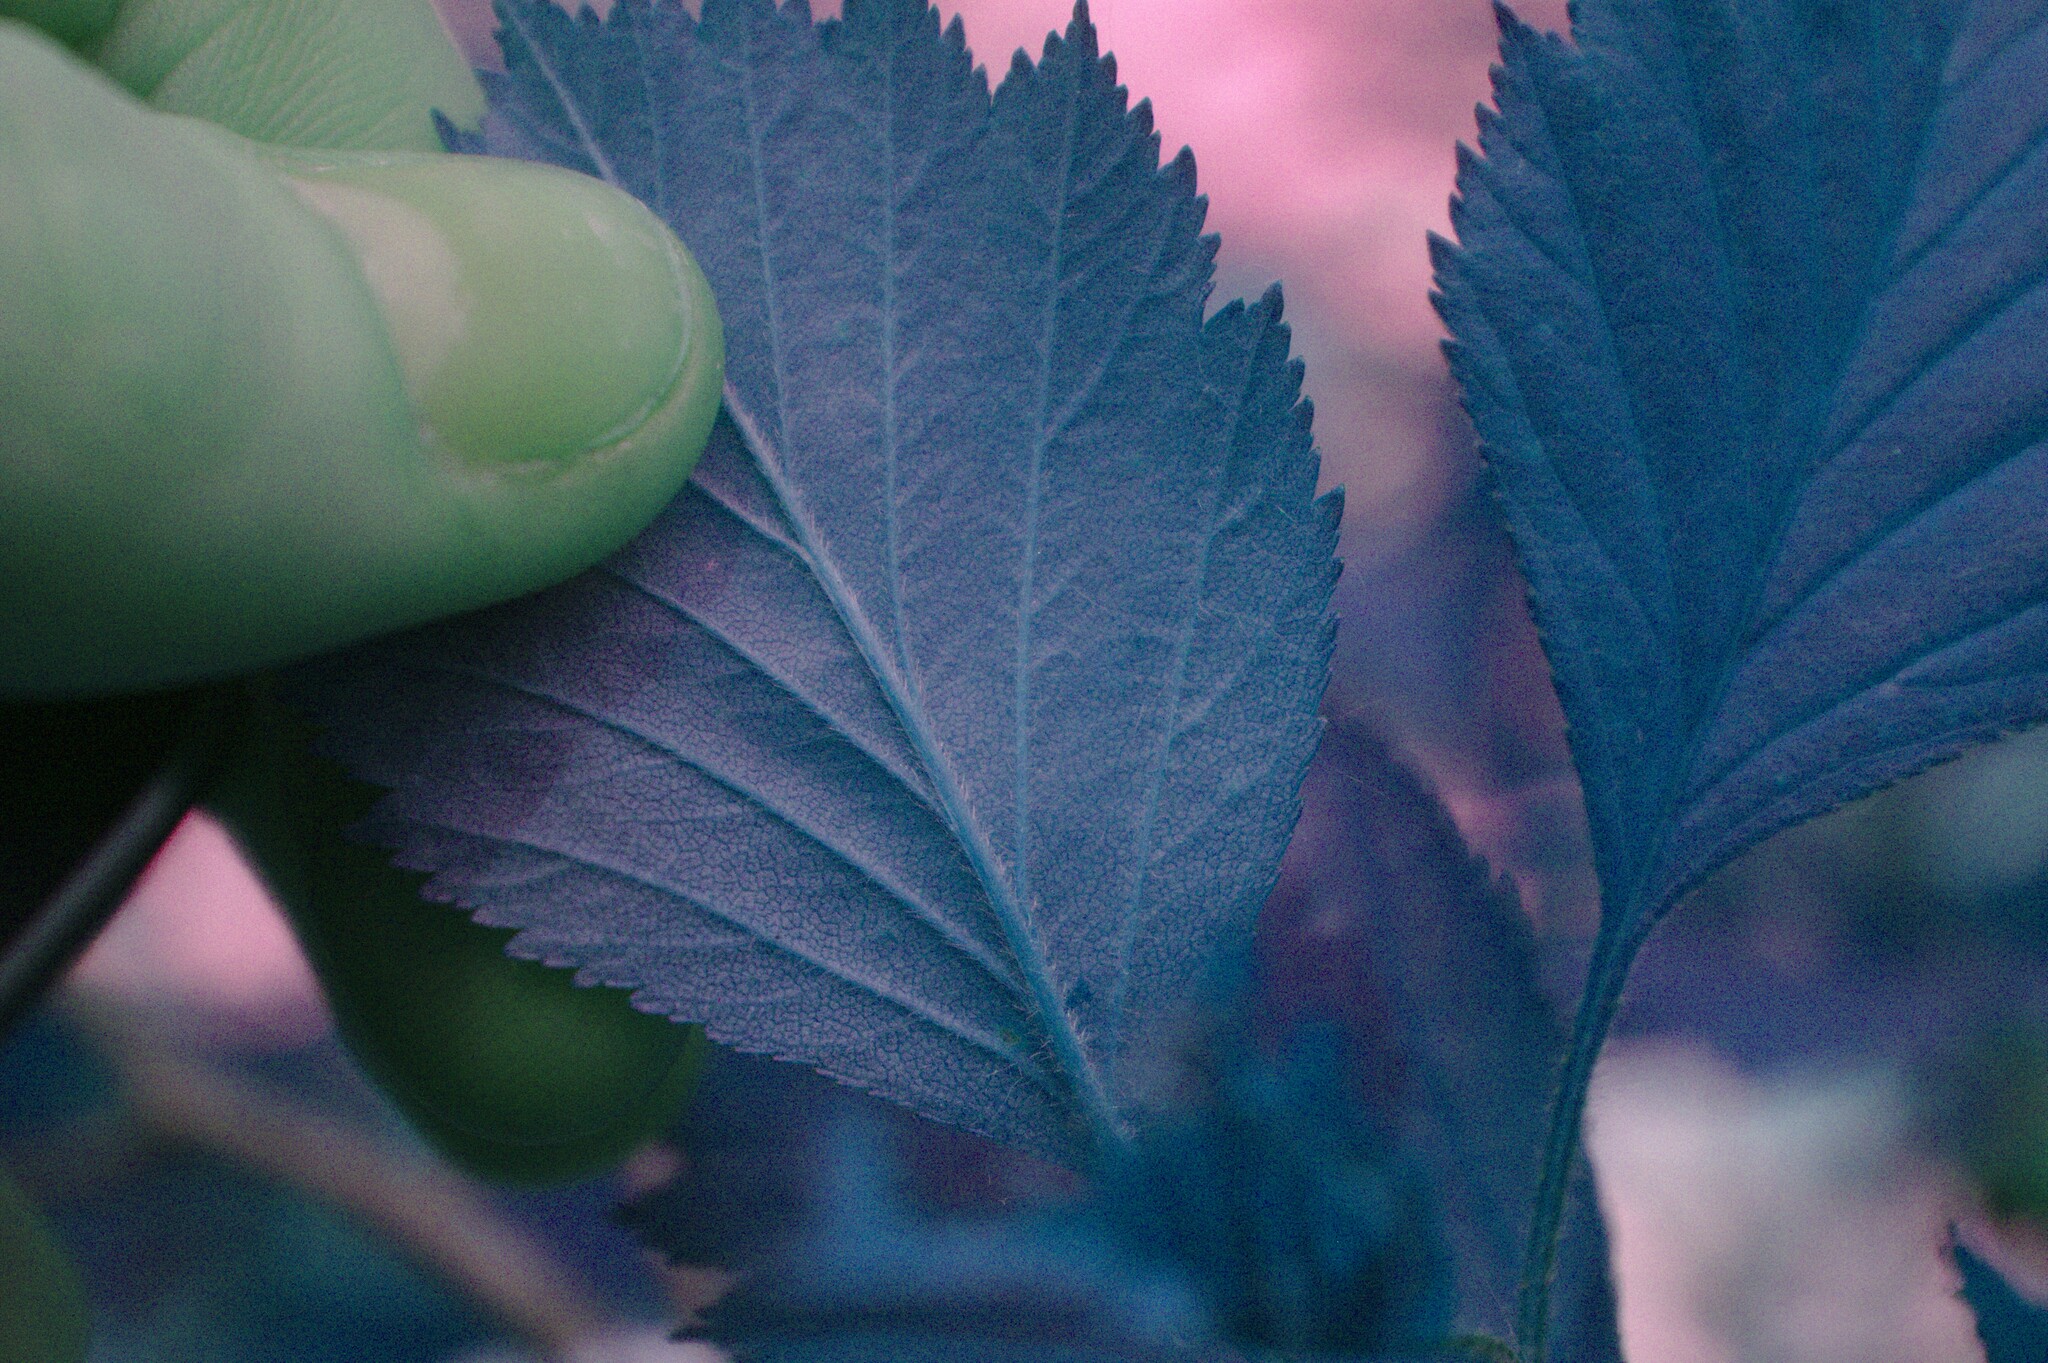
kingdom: Plantae
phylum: Tracheophyta
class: Magnoliopsida
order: Rosales
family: Rosaceae
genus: Crataegus
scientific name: Crataegus chrysocarpa
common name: Fire-berry hawthorn
